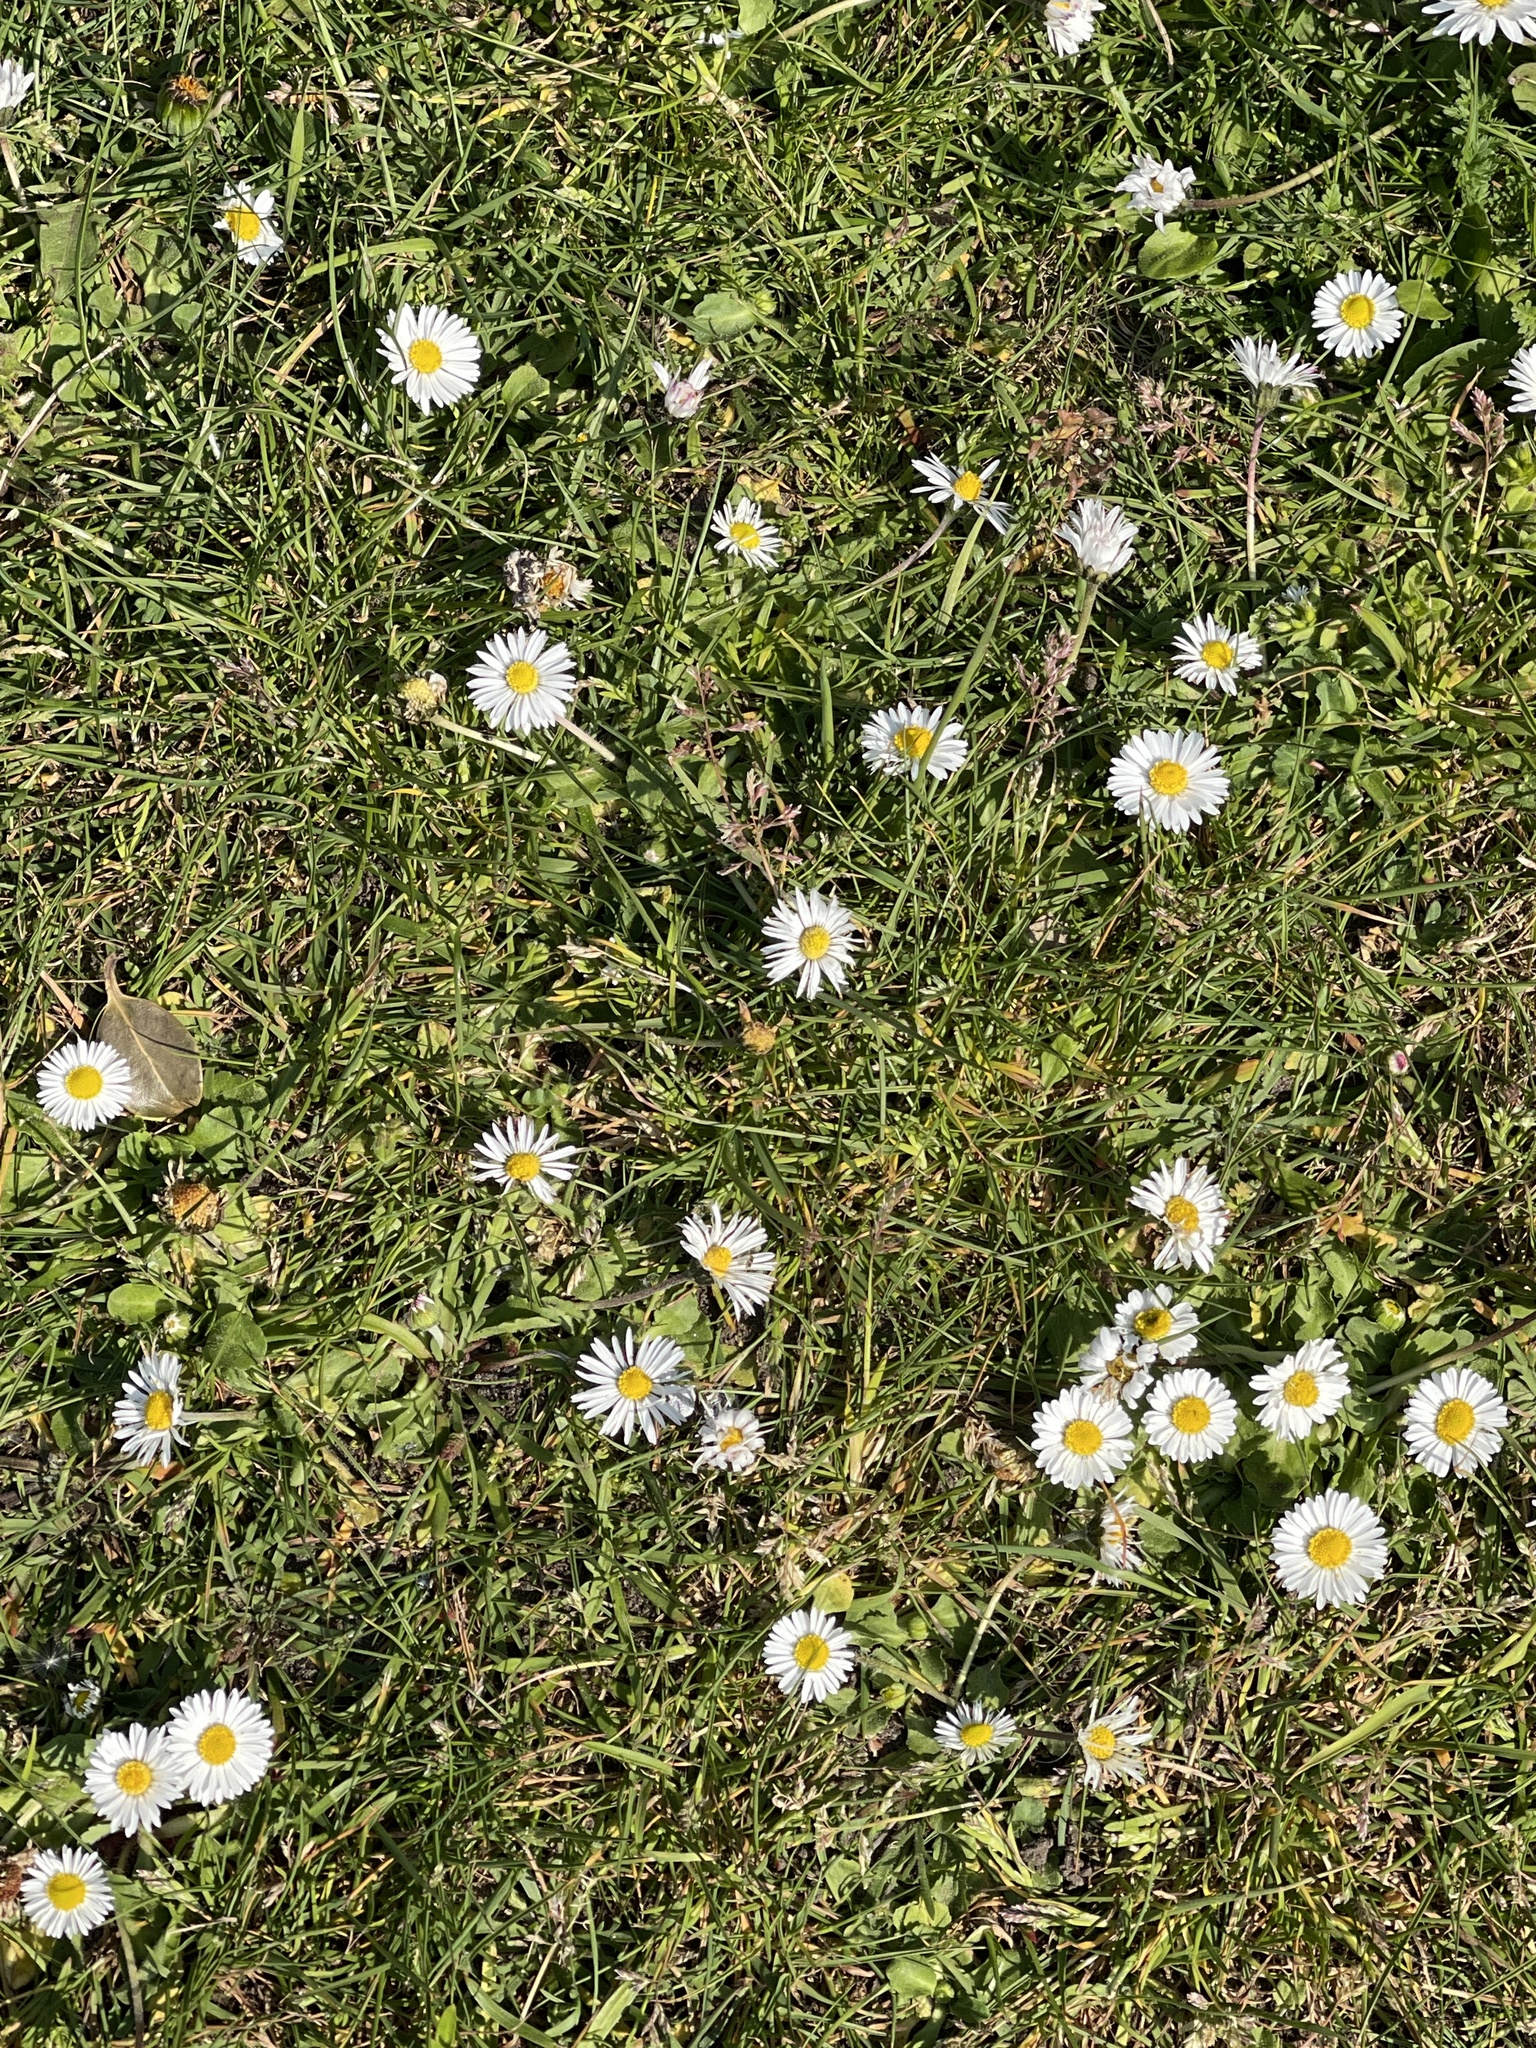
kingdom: Plantae
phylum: Tracheophyta
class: Magnoliopsida
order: Asterales
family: Asteraceae
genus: Bellis
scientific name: Bellis perennis
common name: Lawndaisy
